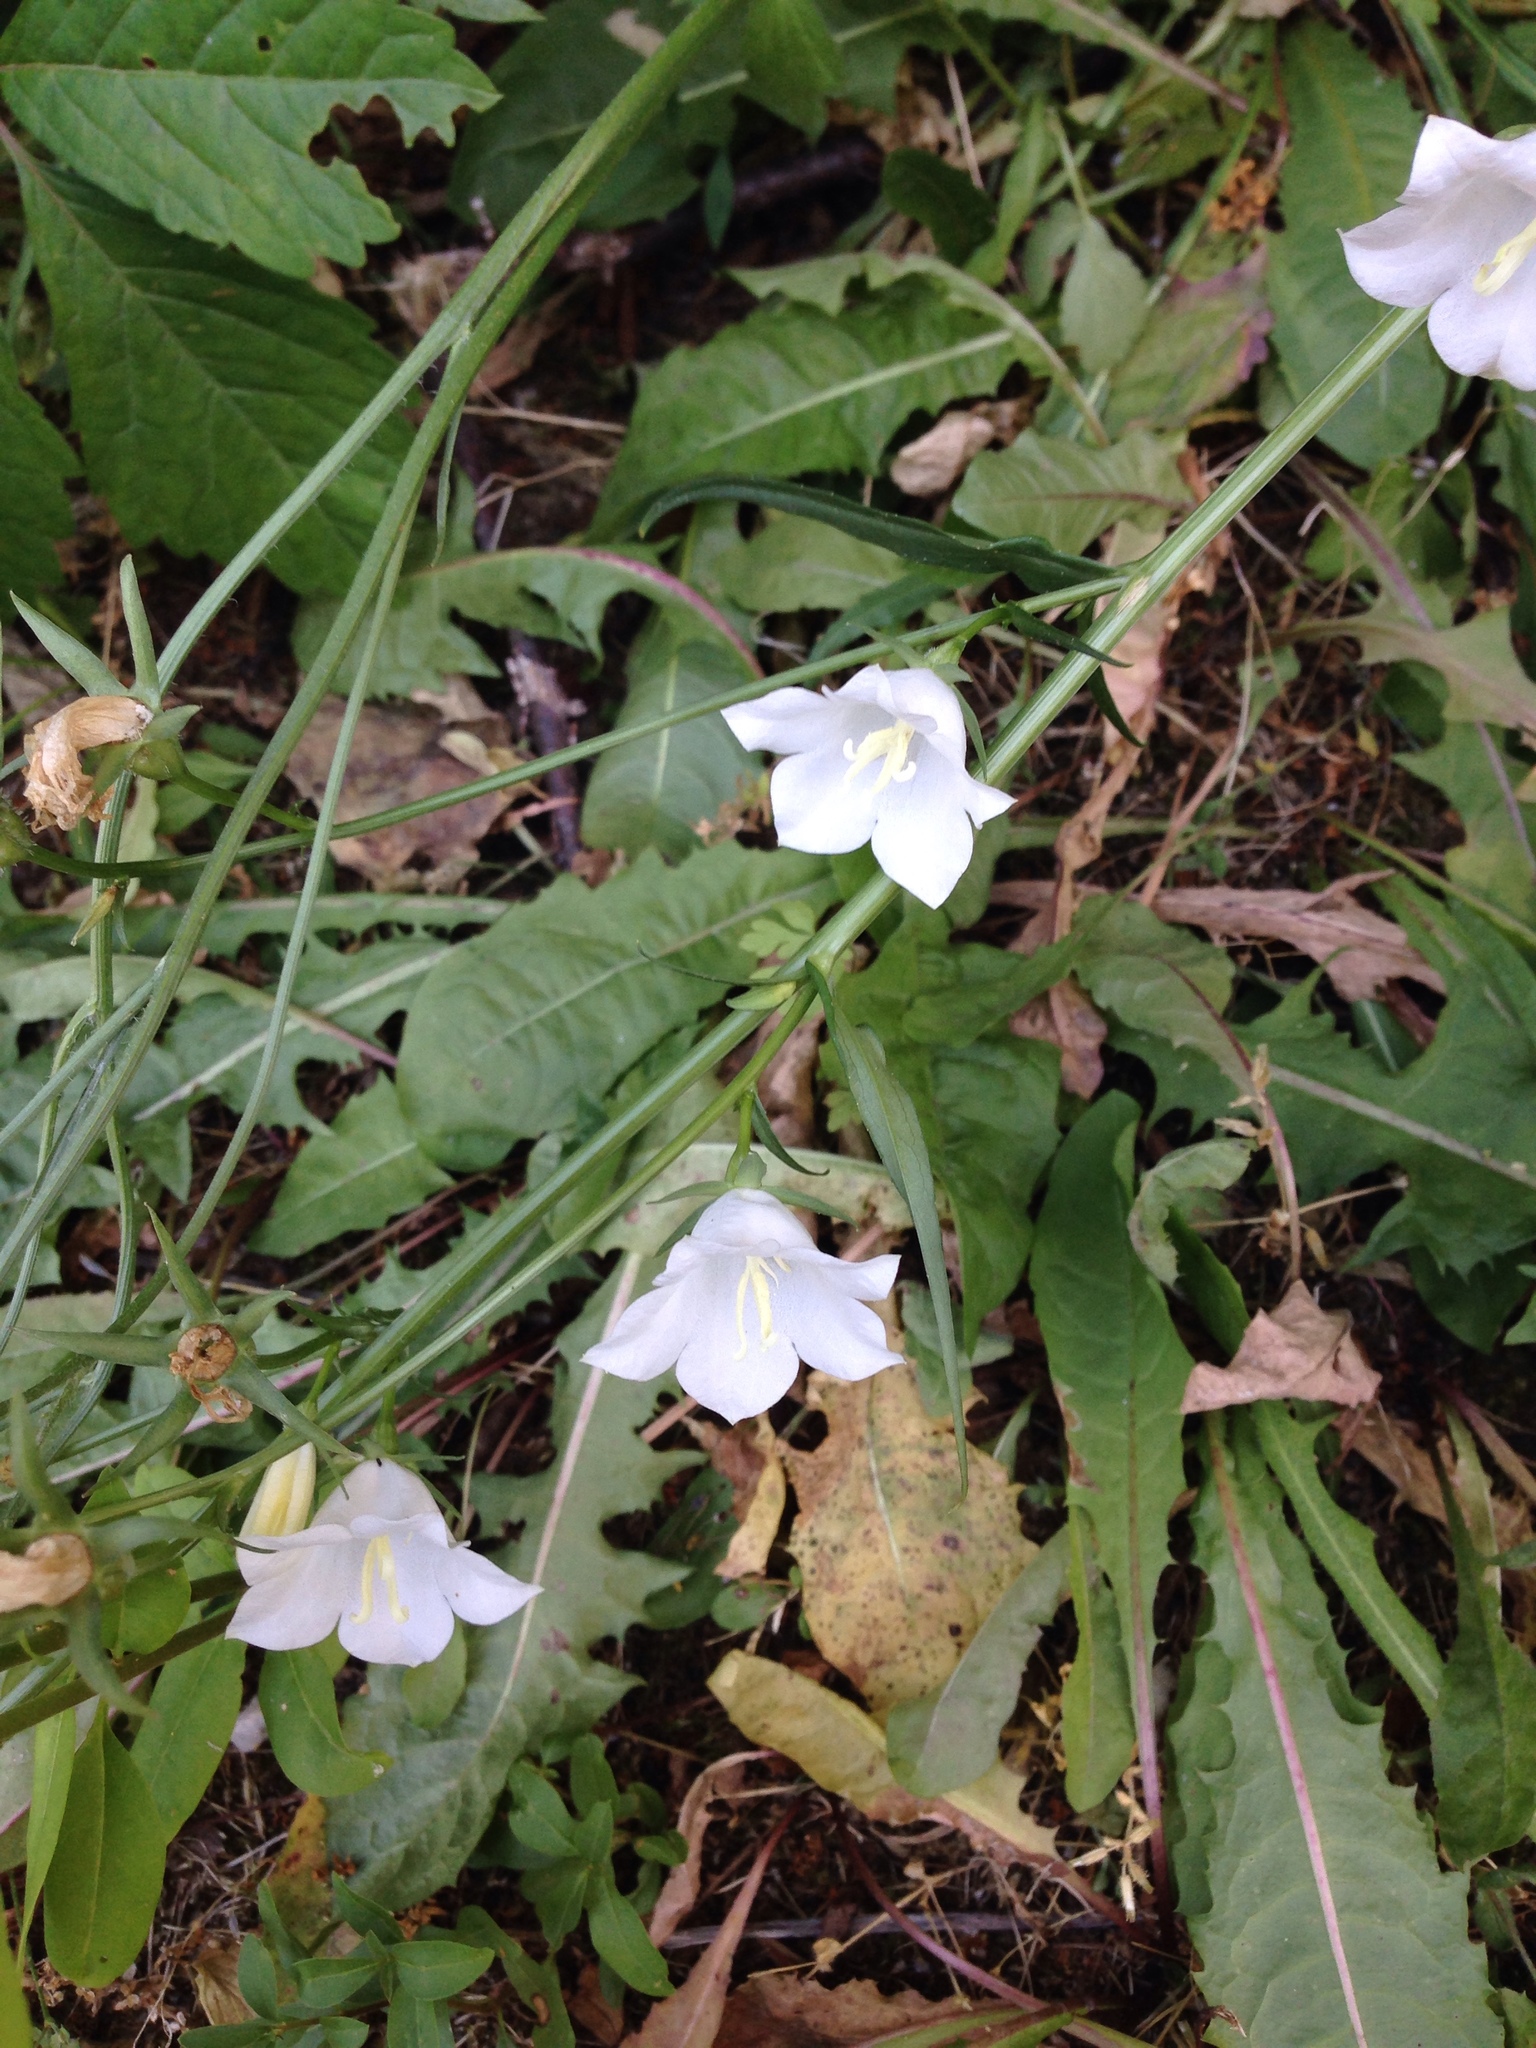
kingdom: Plantae
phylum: Tracheophyta
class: Magnoliopsida
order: Asterales
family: Campanulaceae
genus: Campanula
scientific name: Campanula persicifolia
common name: Peach-leaved bellflower
